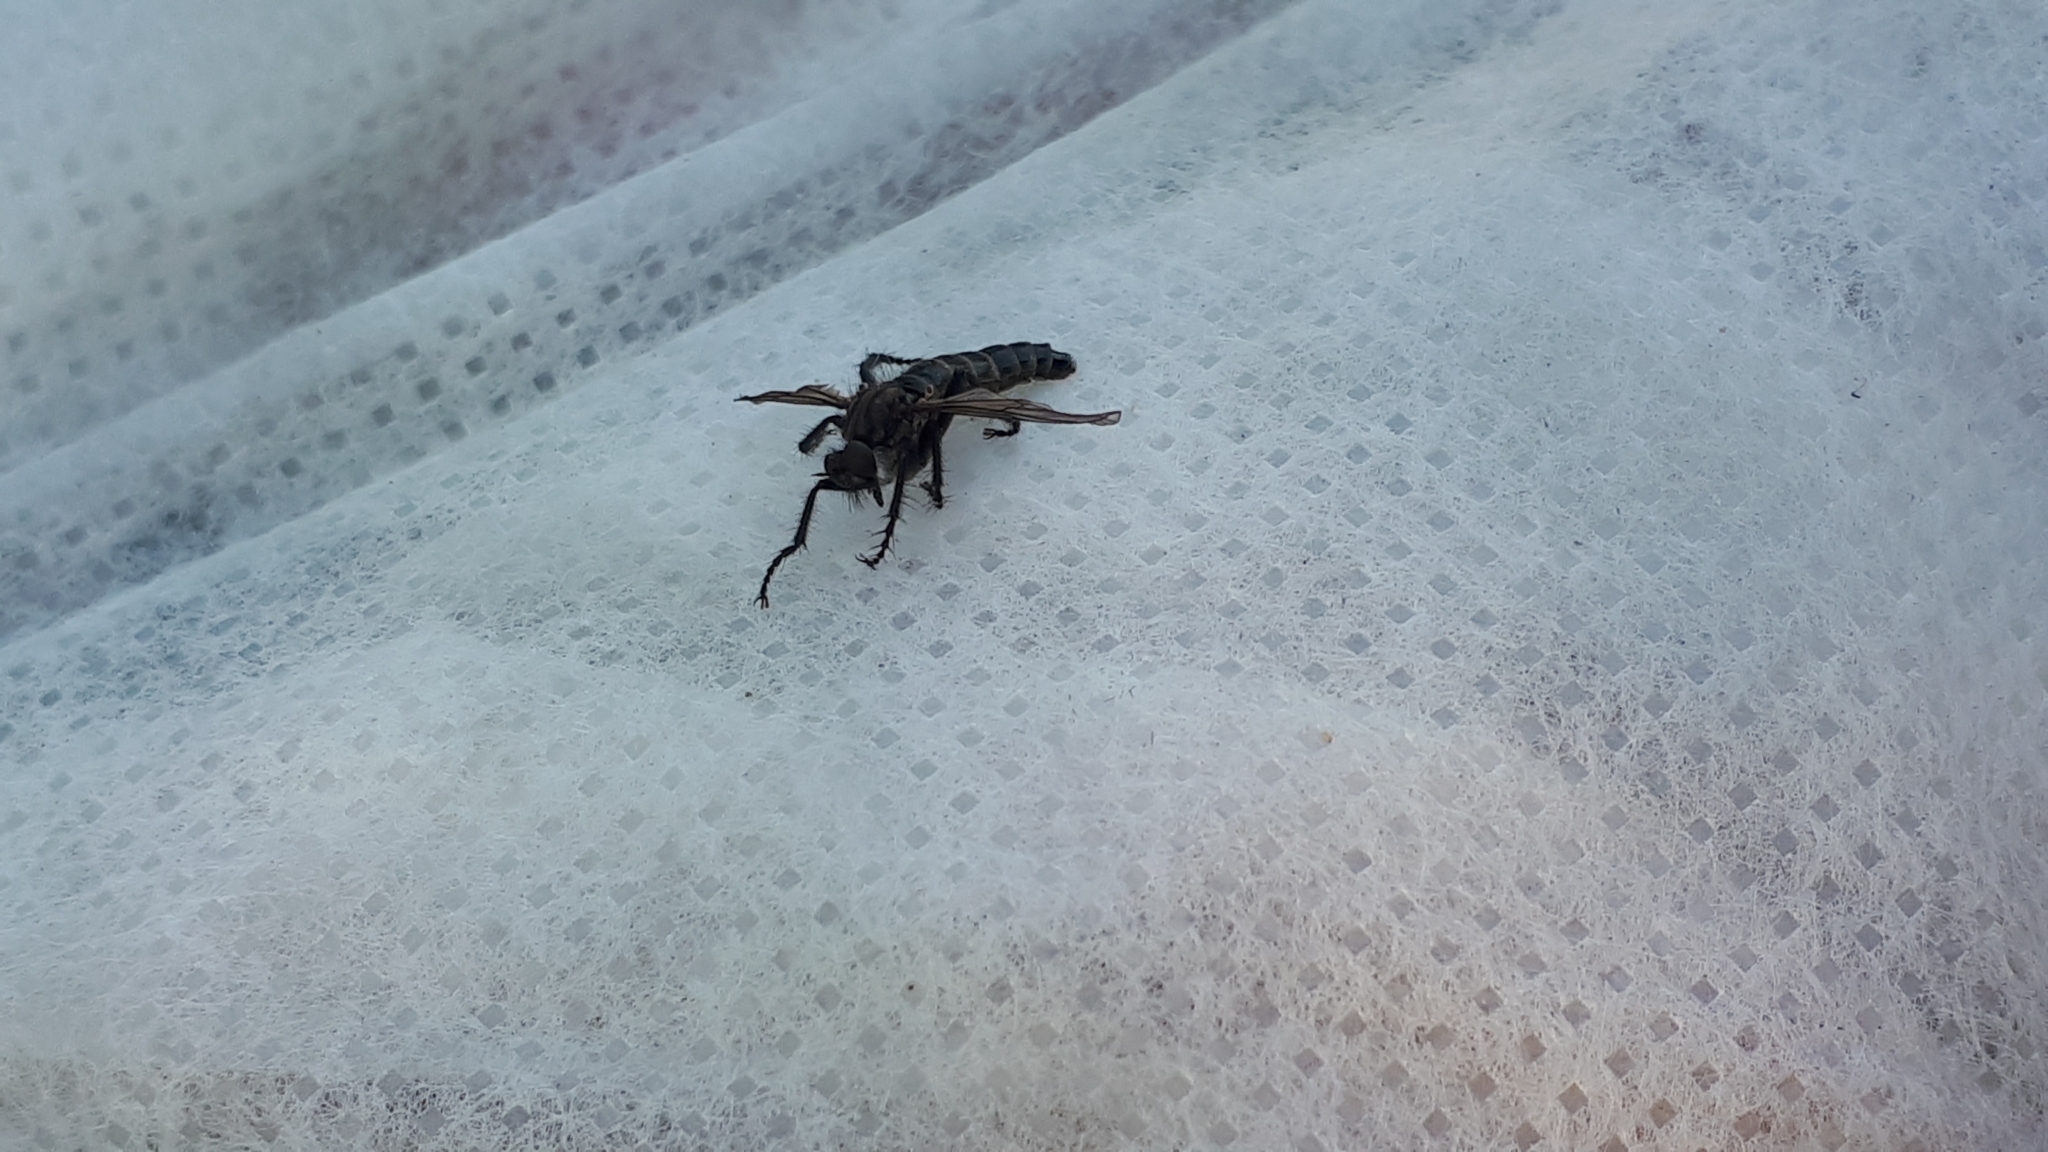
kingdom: Animalia
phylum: Arthropoda
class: Insecta
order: Diptera
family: Asilidae
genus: Lasiopogon
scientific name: Lasiopogon cinctus
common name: Spring heath robberfly
